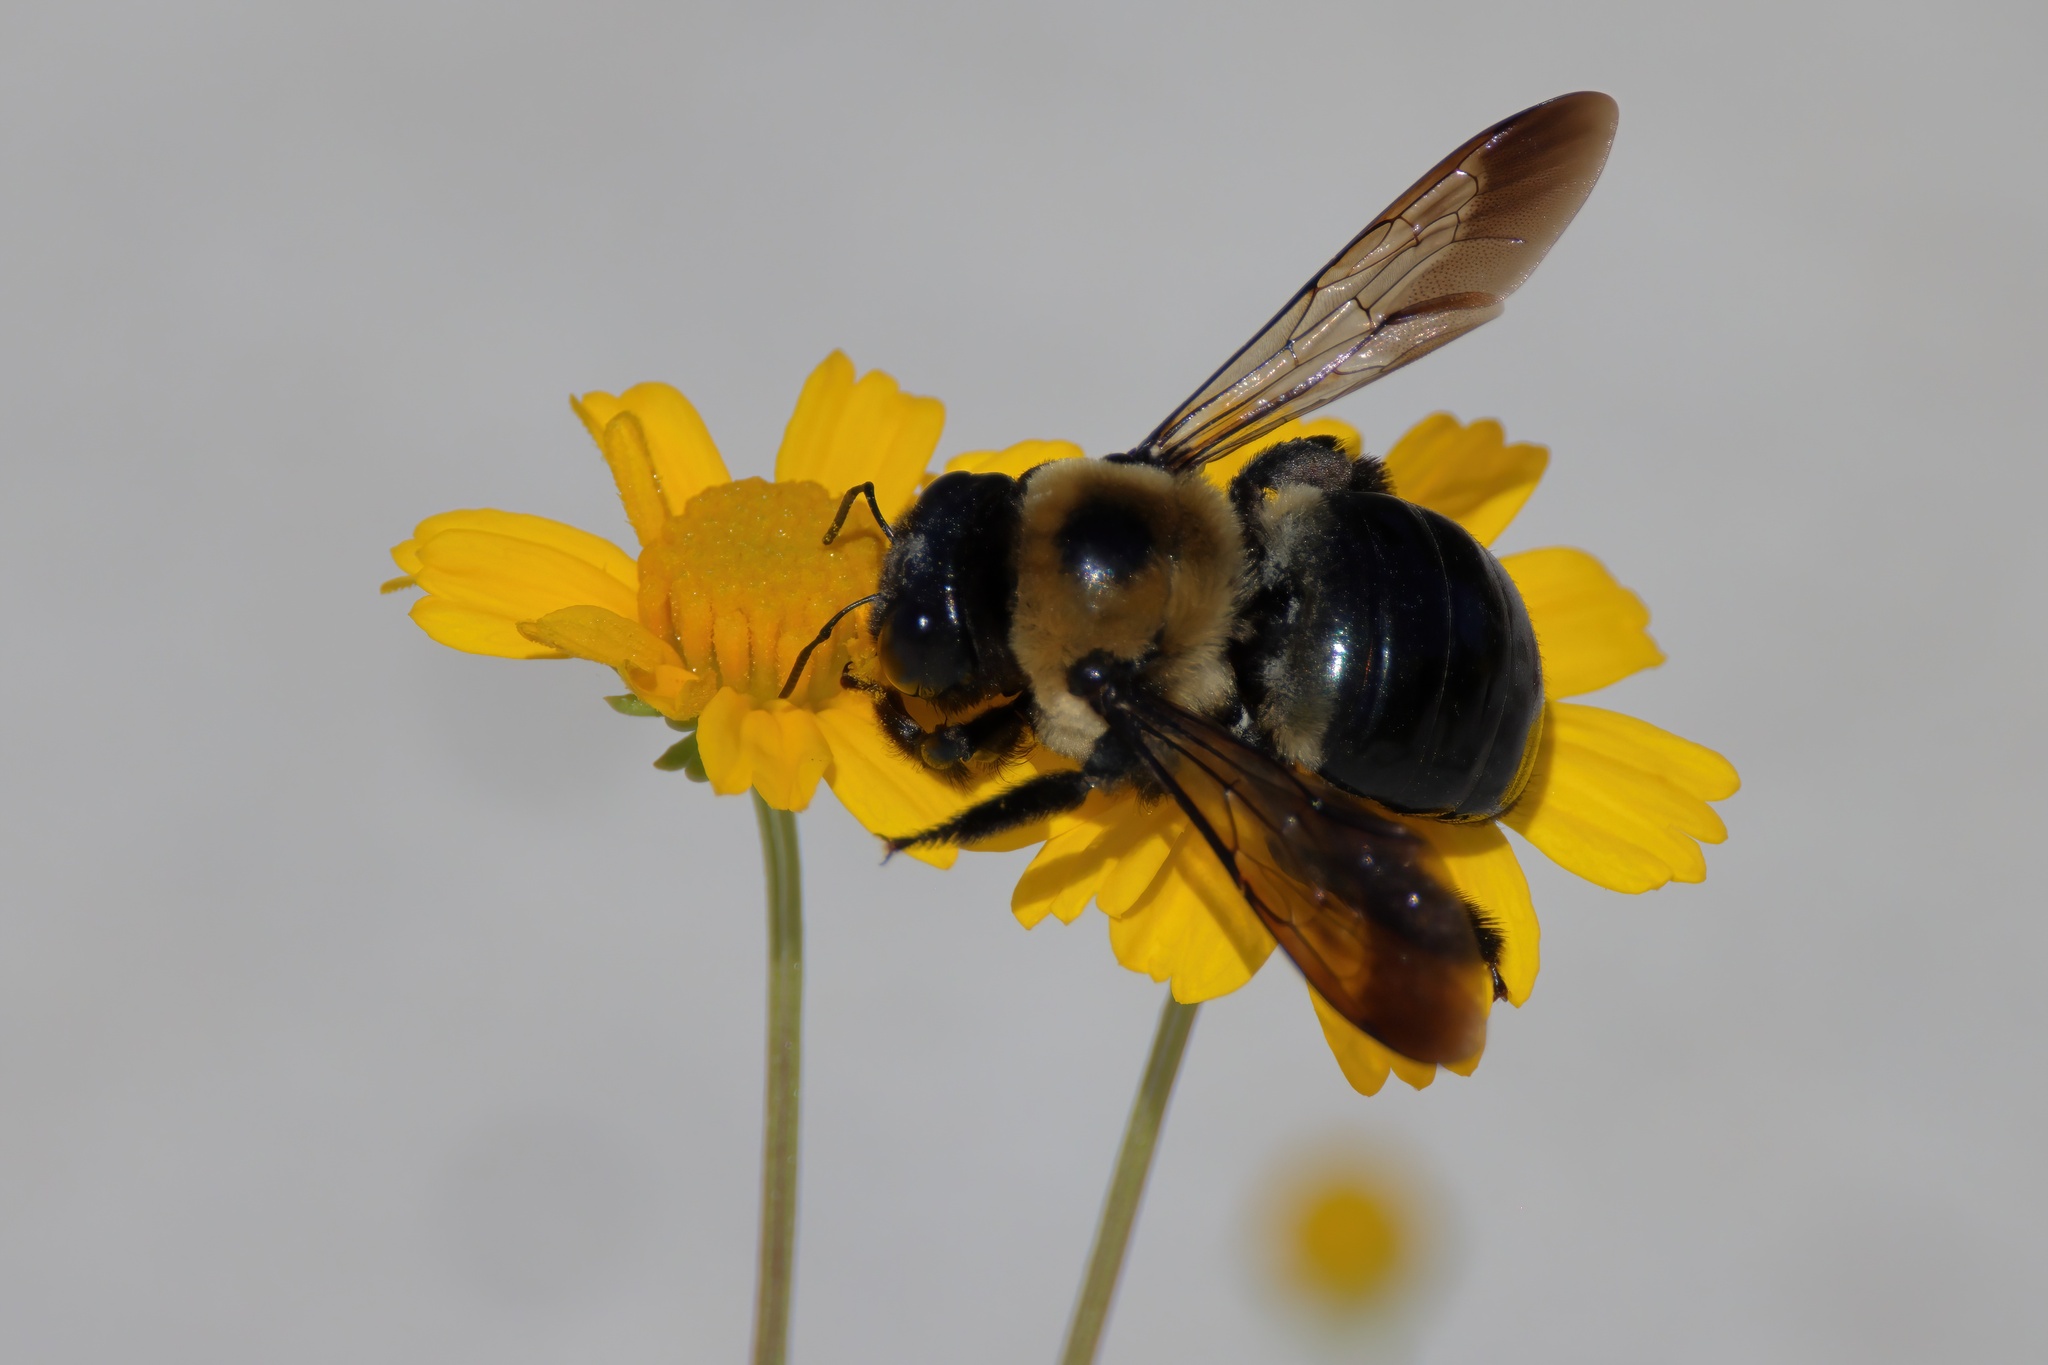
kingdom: Animalia
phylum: Arthropoda
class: Insecta
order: Hymenoptera
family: Apidae
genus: Xylocopa
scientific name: Xylocopa virginica
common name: Carpenter bee
